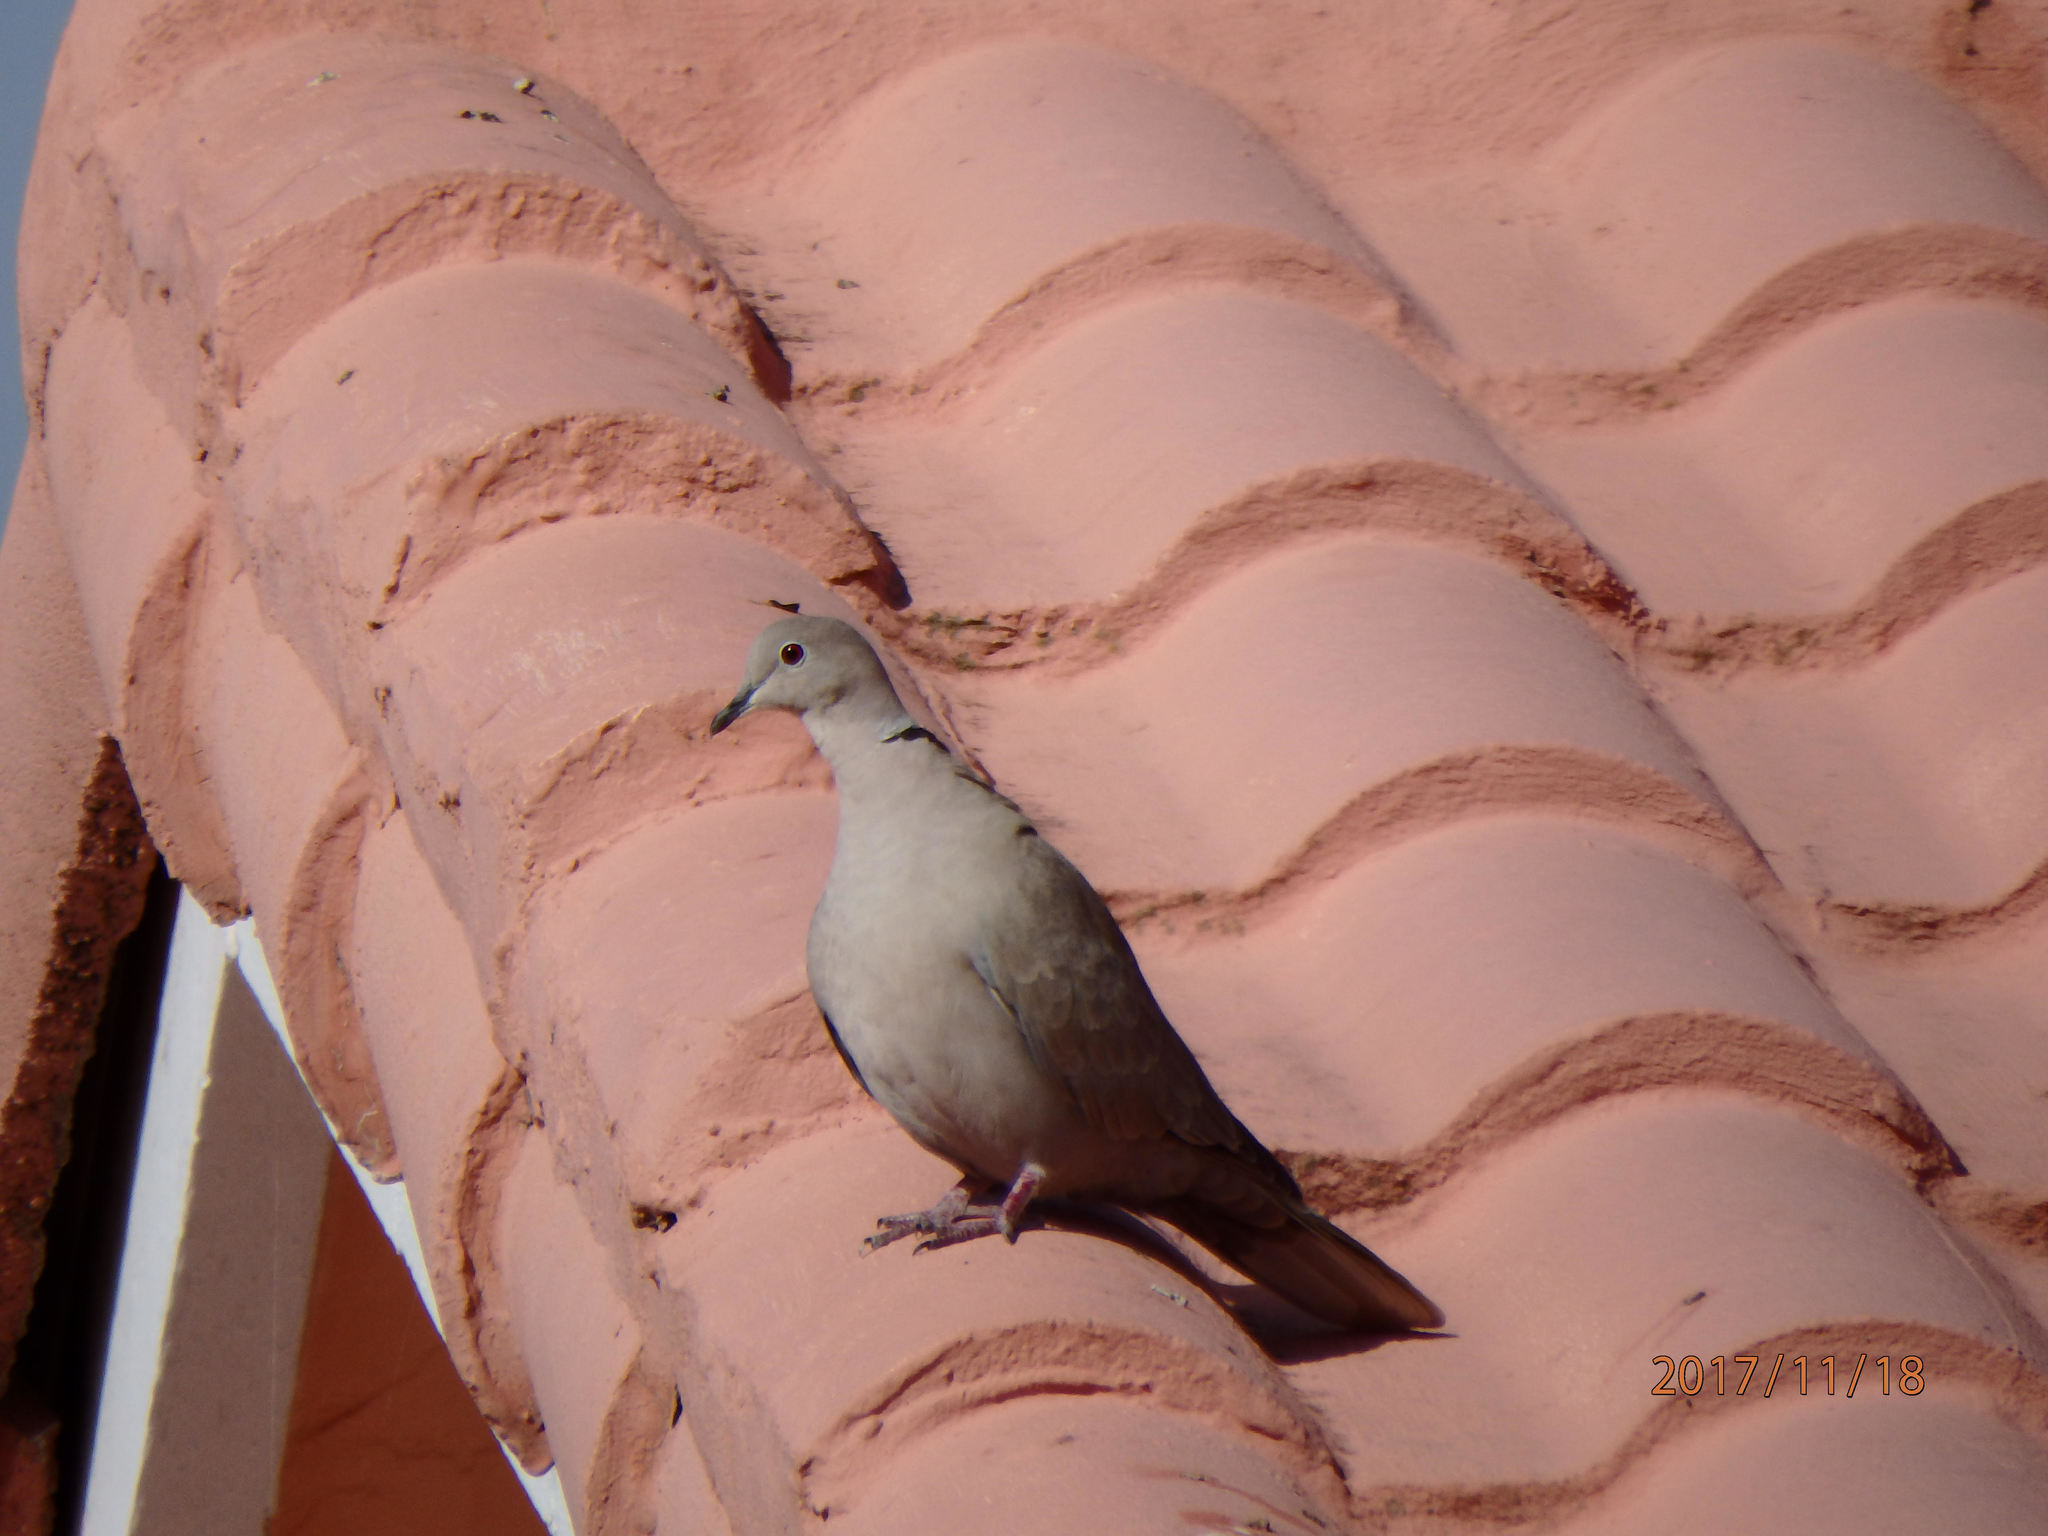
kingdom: Animalia
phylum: Chordata
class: Aves
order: Columbiformes
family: Columbidae
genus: Streptopelia
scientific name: Streptopelia decaocto
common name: Eurasian collared dove
